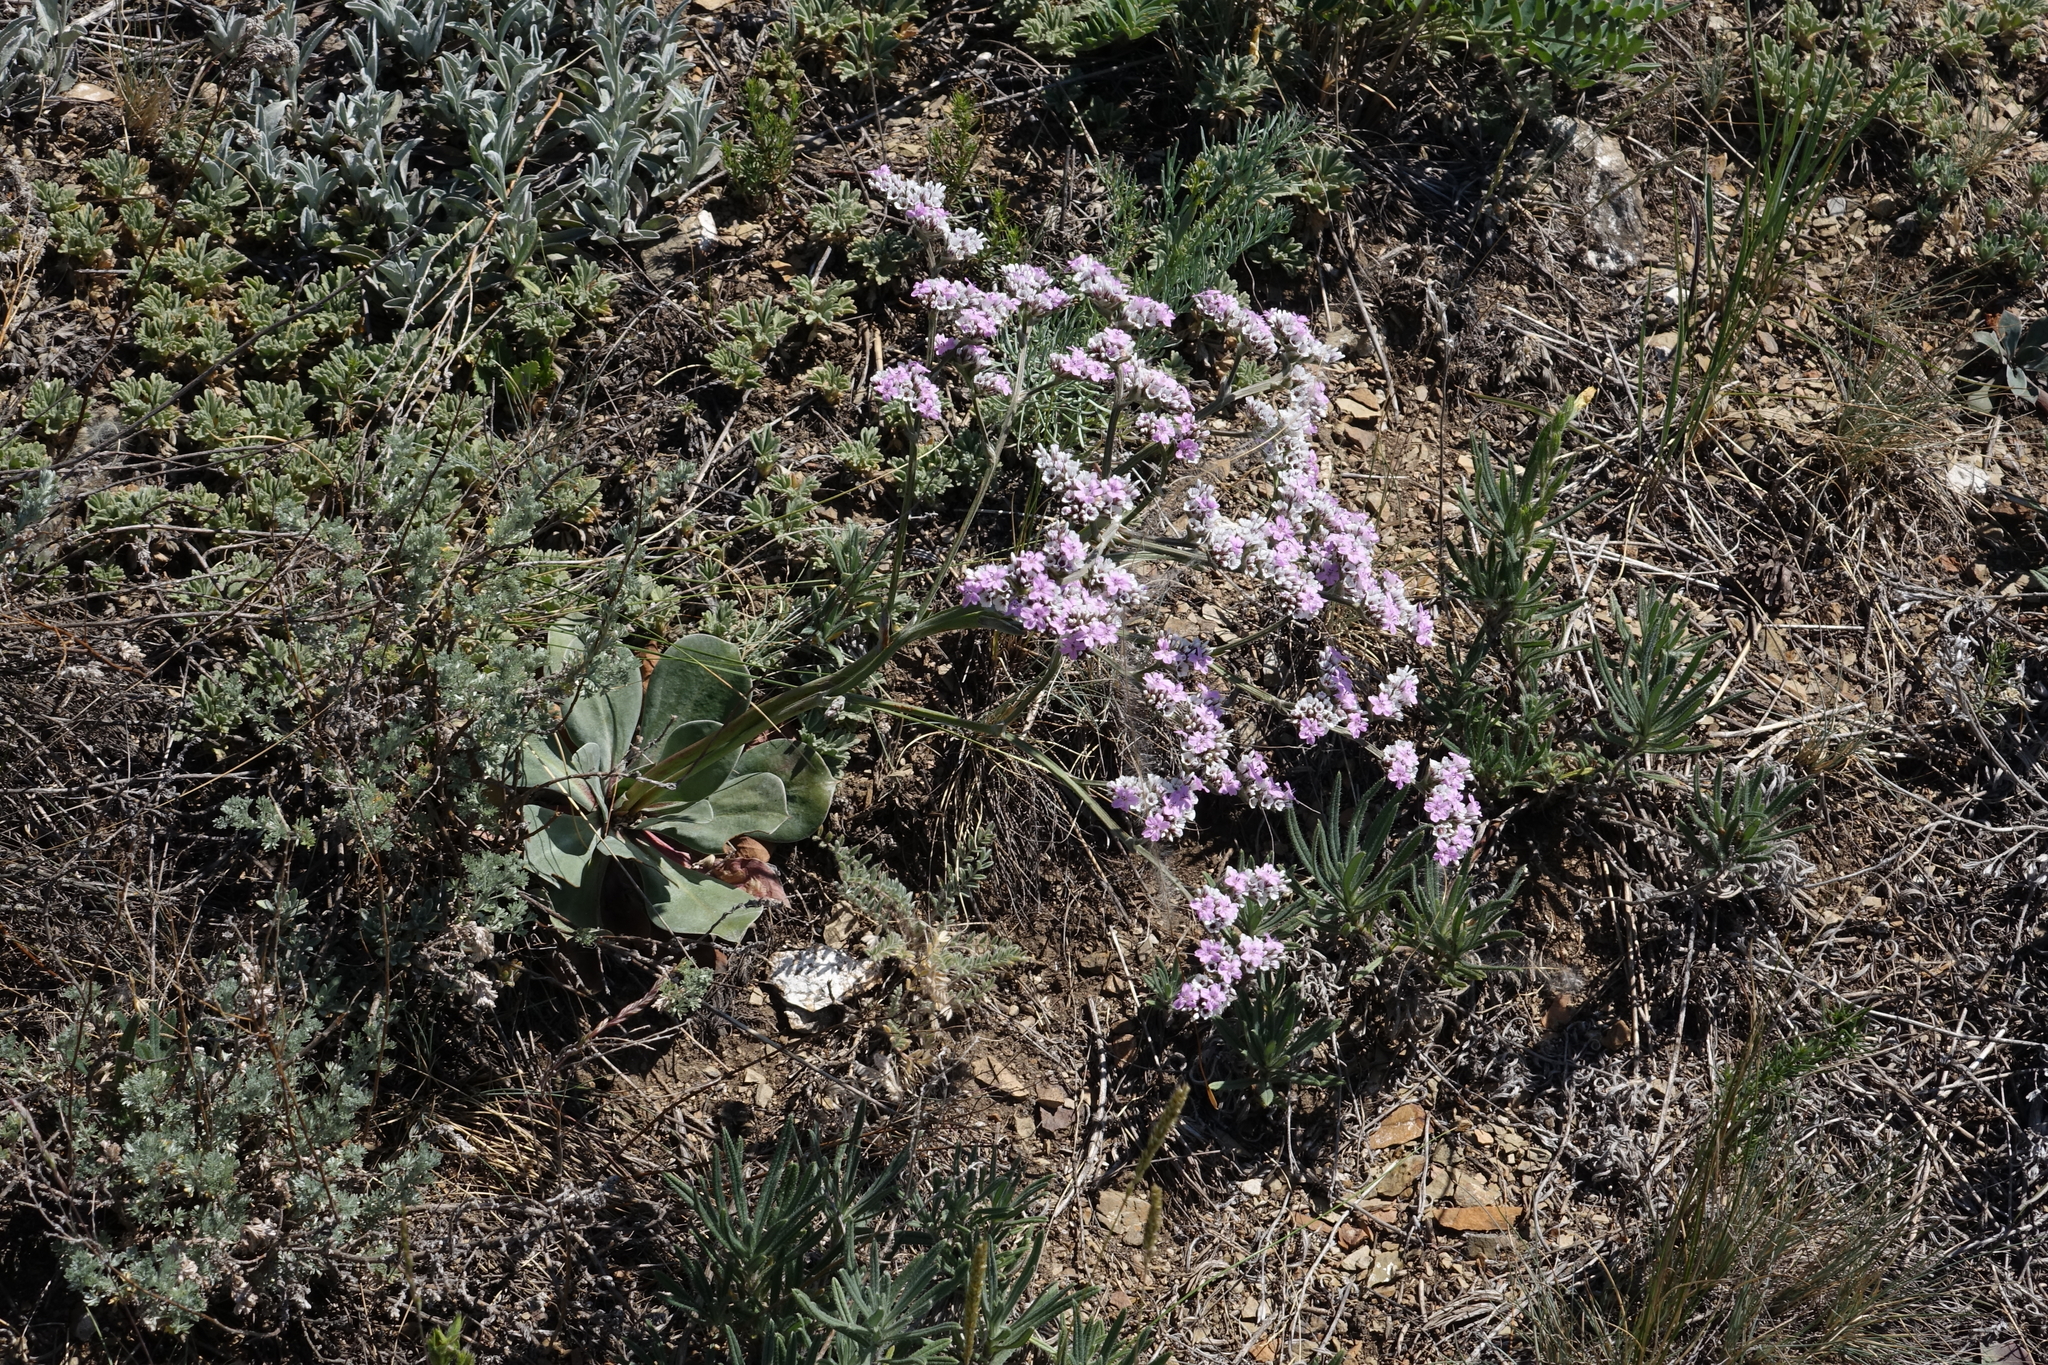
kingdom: Plantae
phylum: Tracheophyta
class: Magnoliopsida
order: Caryophyllales
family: Plumbaginaceae
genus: Goniolimon
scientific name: Goniolimon speciosum
